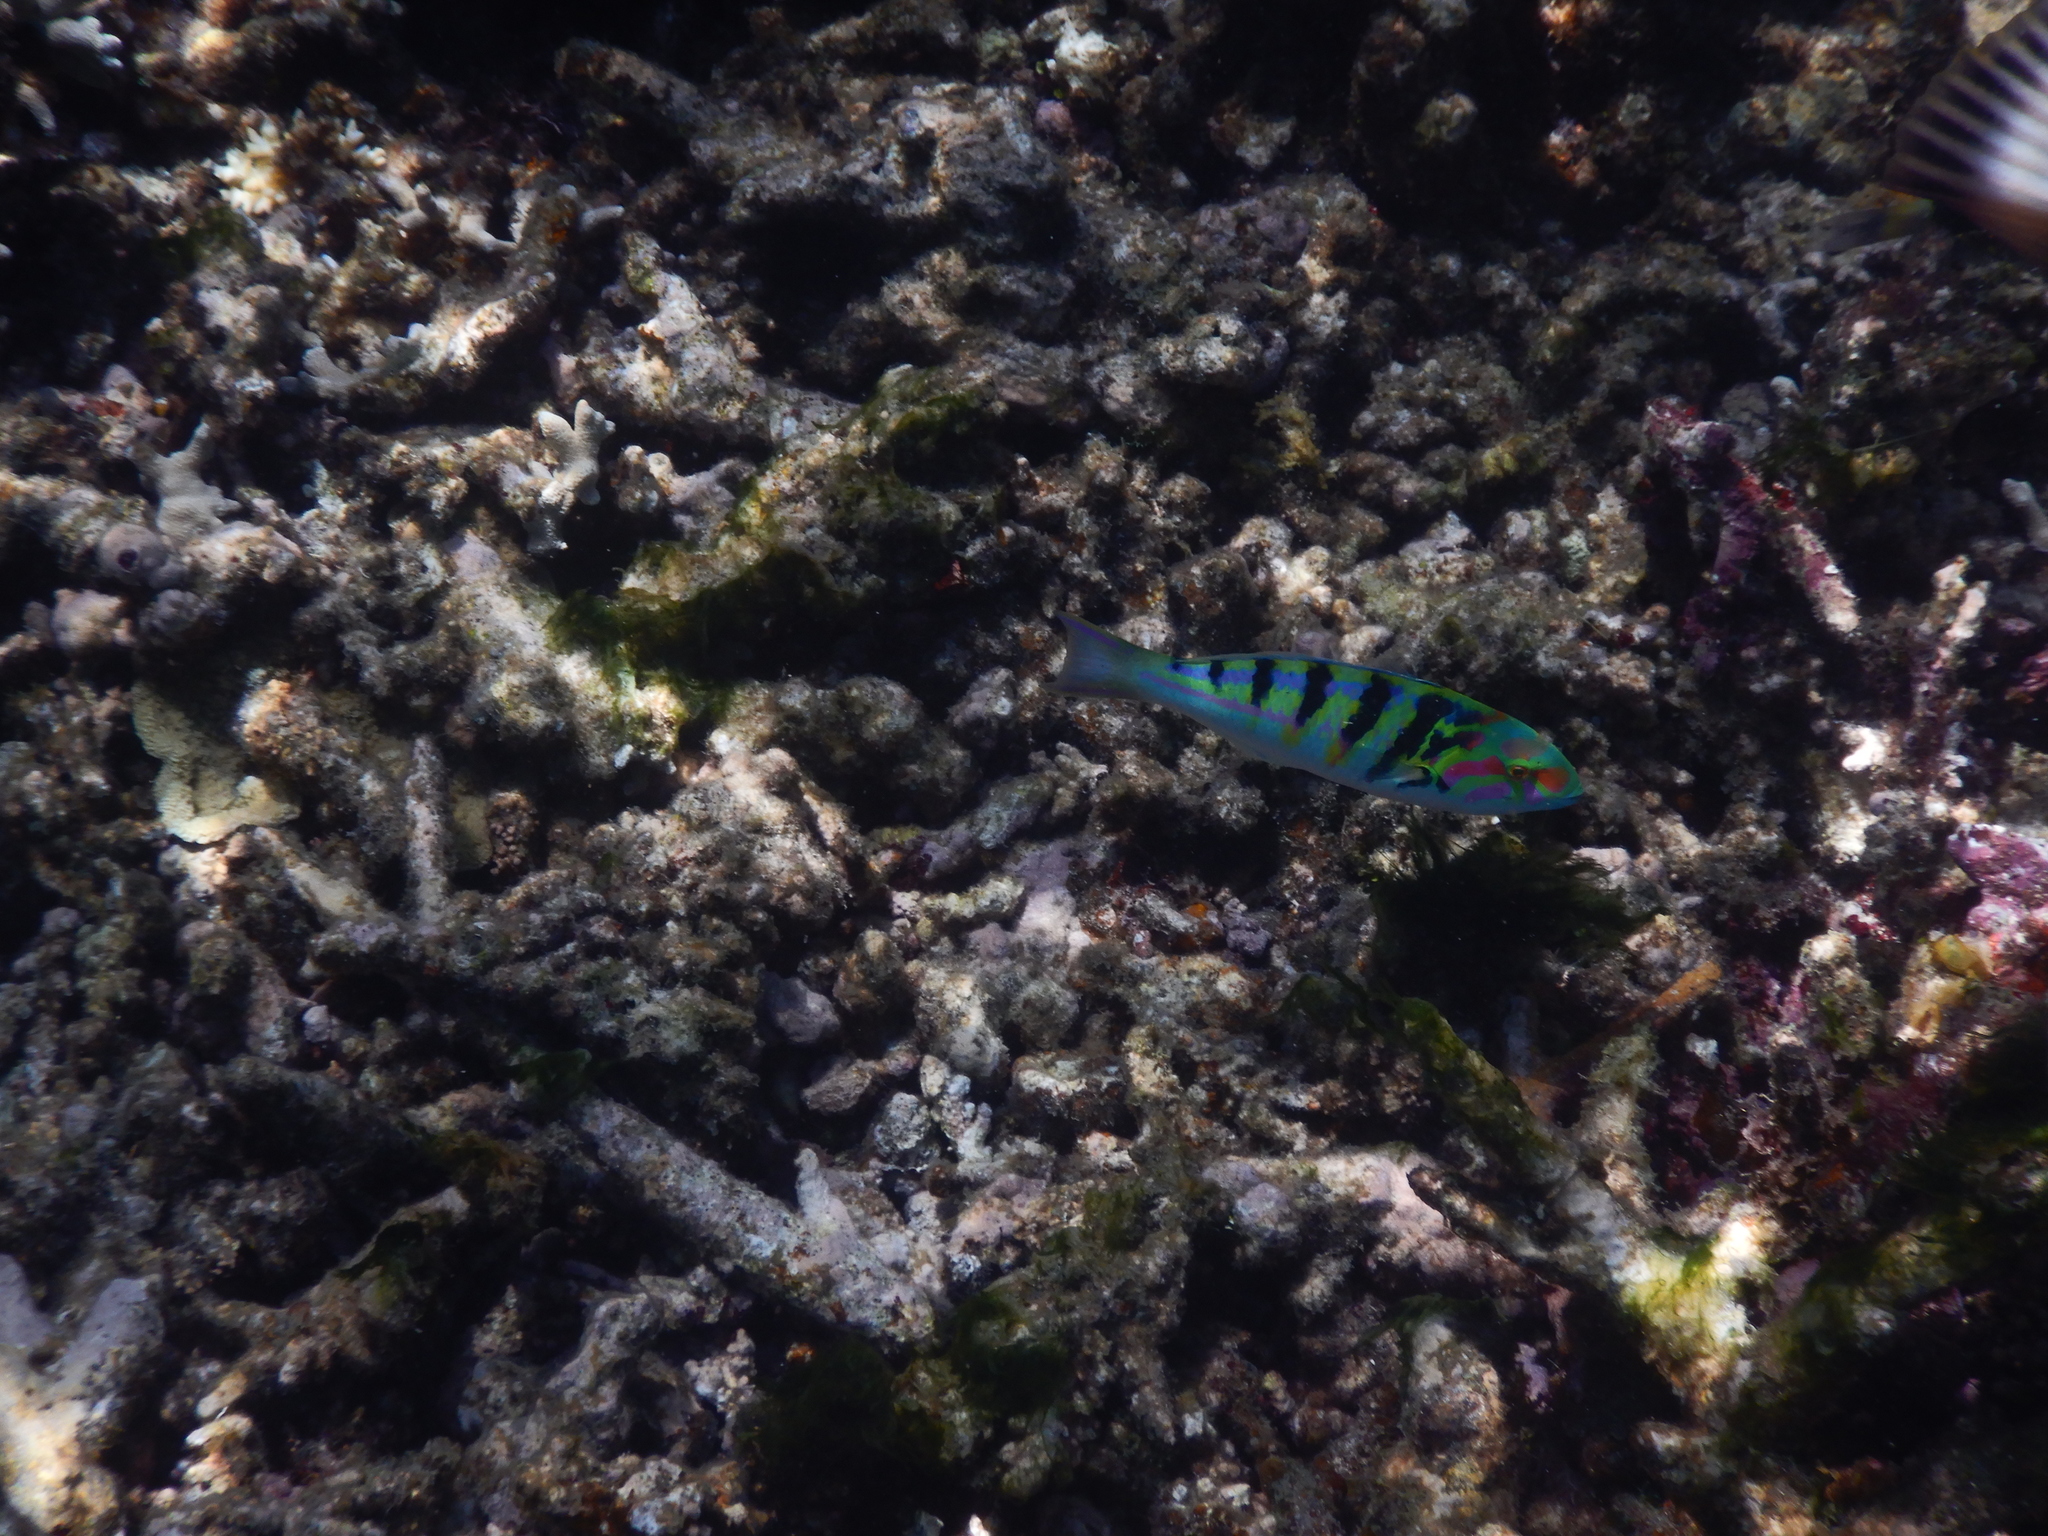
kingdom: Animalia
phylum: Chordata
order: Perciformes
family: Labridae
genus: Thalassoma
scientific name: Thalassoma hardwicke
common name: Sixbar wrasse
